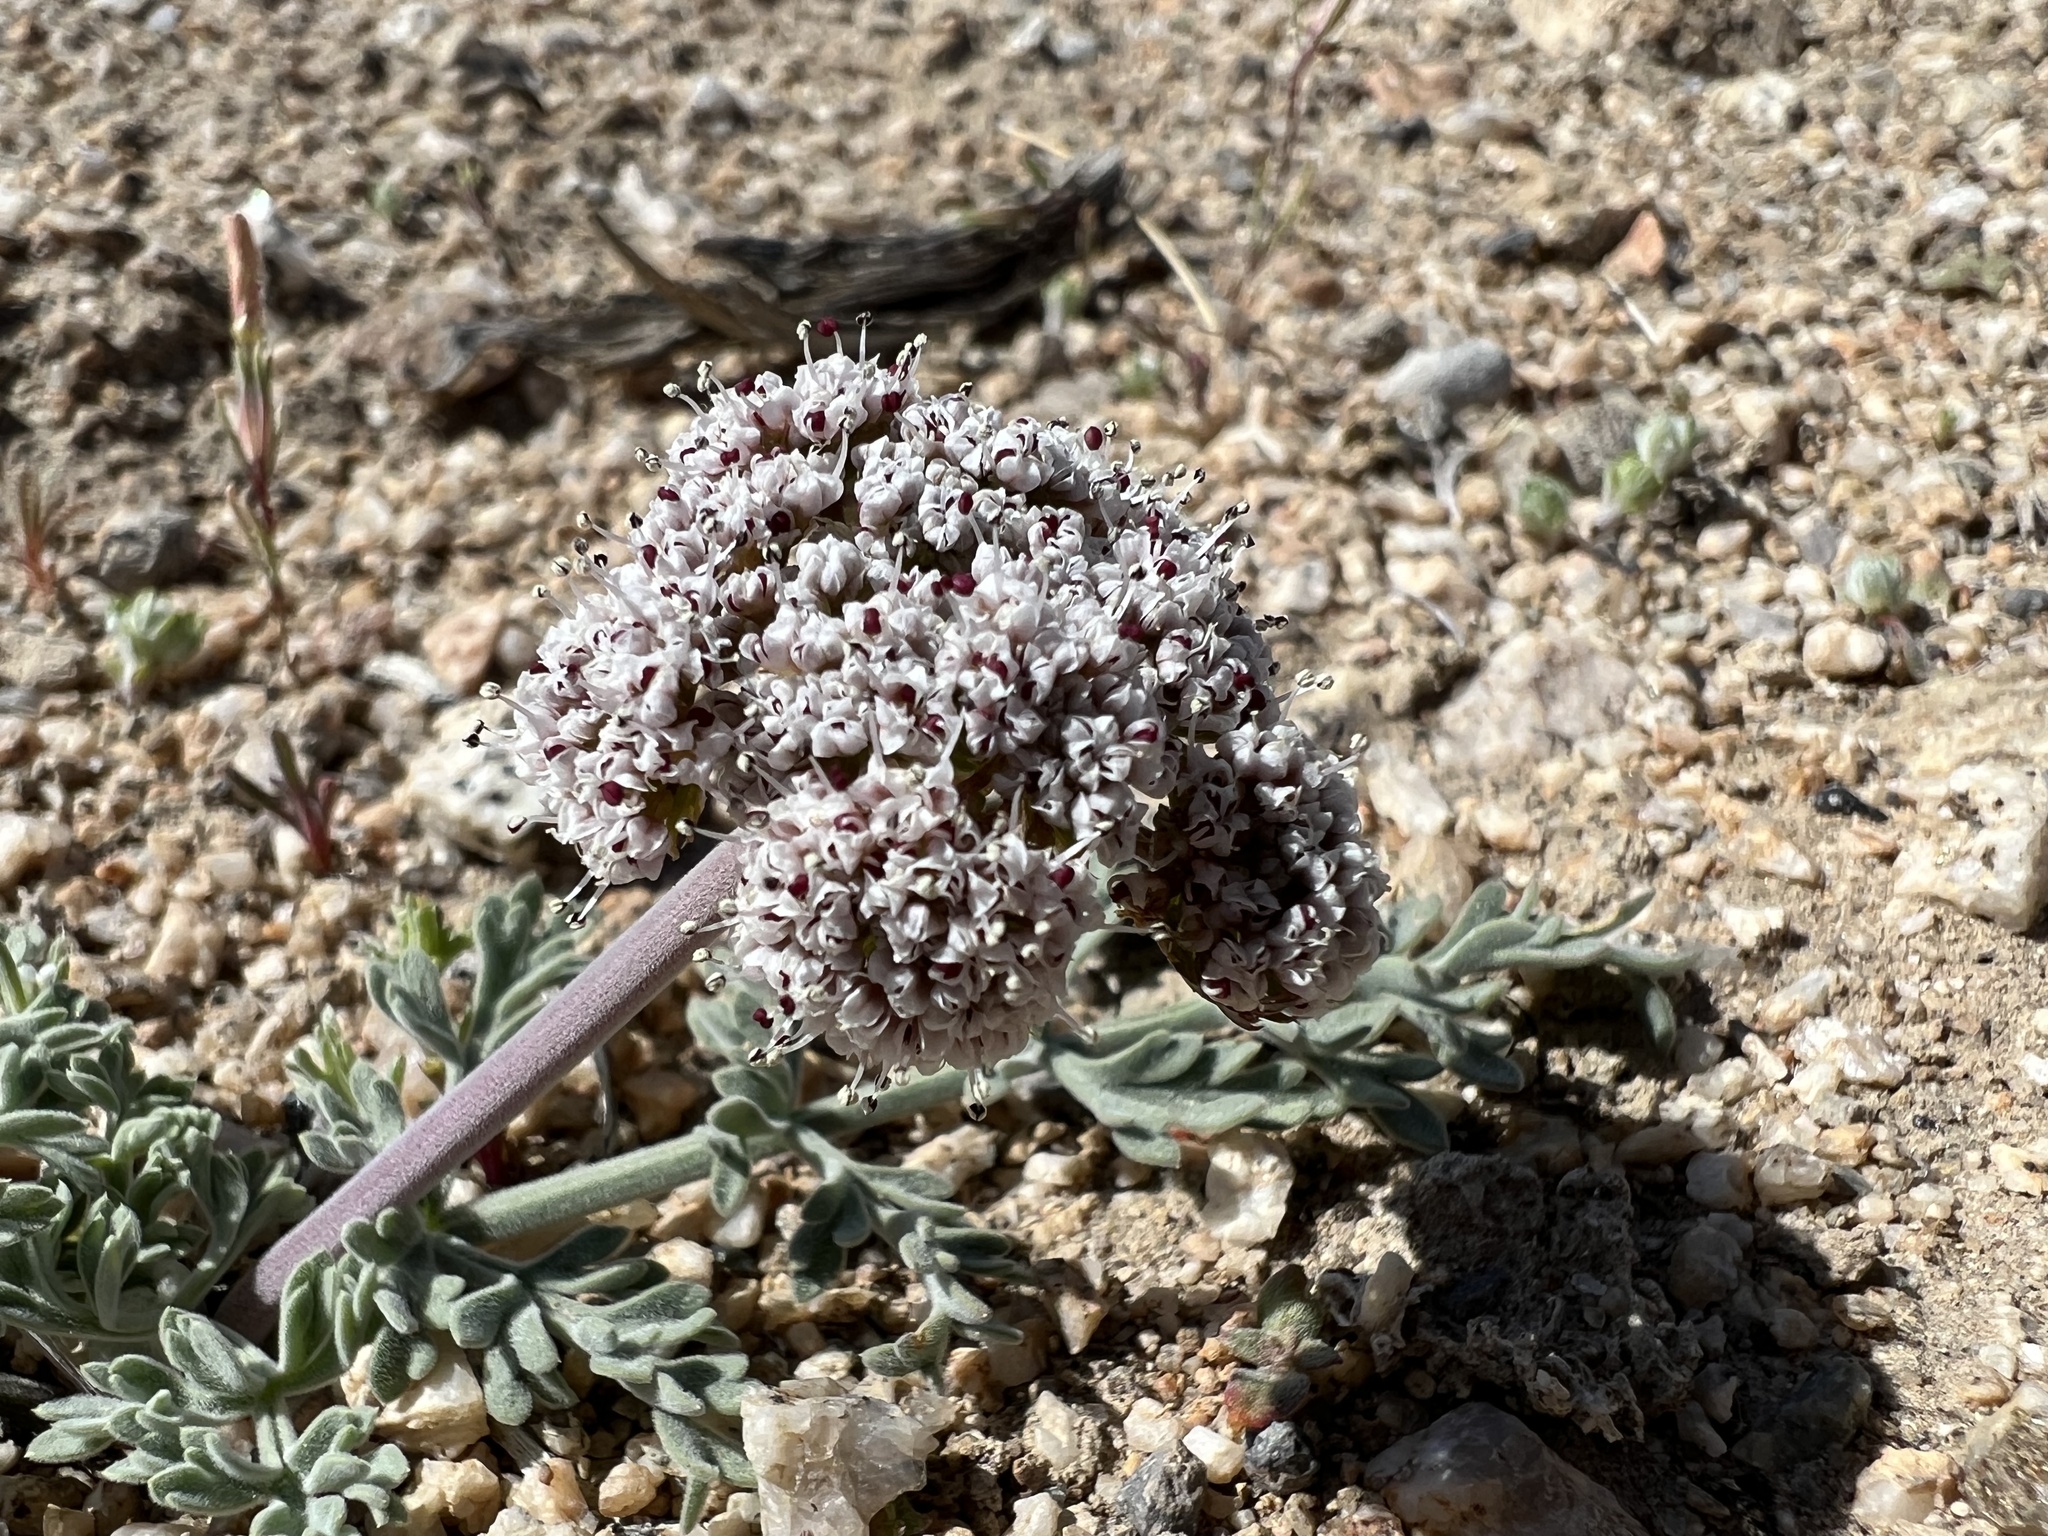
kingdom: Plantae
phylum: Tracheophyta
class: Magnoliopsida
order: Apiales
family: Apiaceae
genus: Lomatium
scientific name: Lomatium nevadense
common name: Nevada lomatium
